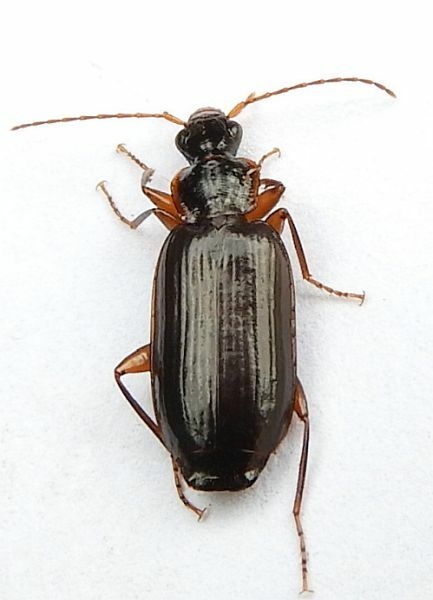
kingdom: Animalia
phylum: Arthropoda
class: Insecta
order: Coleoptera
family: Carabidae
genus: Dromius
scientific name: Dromius piceus
